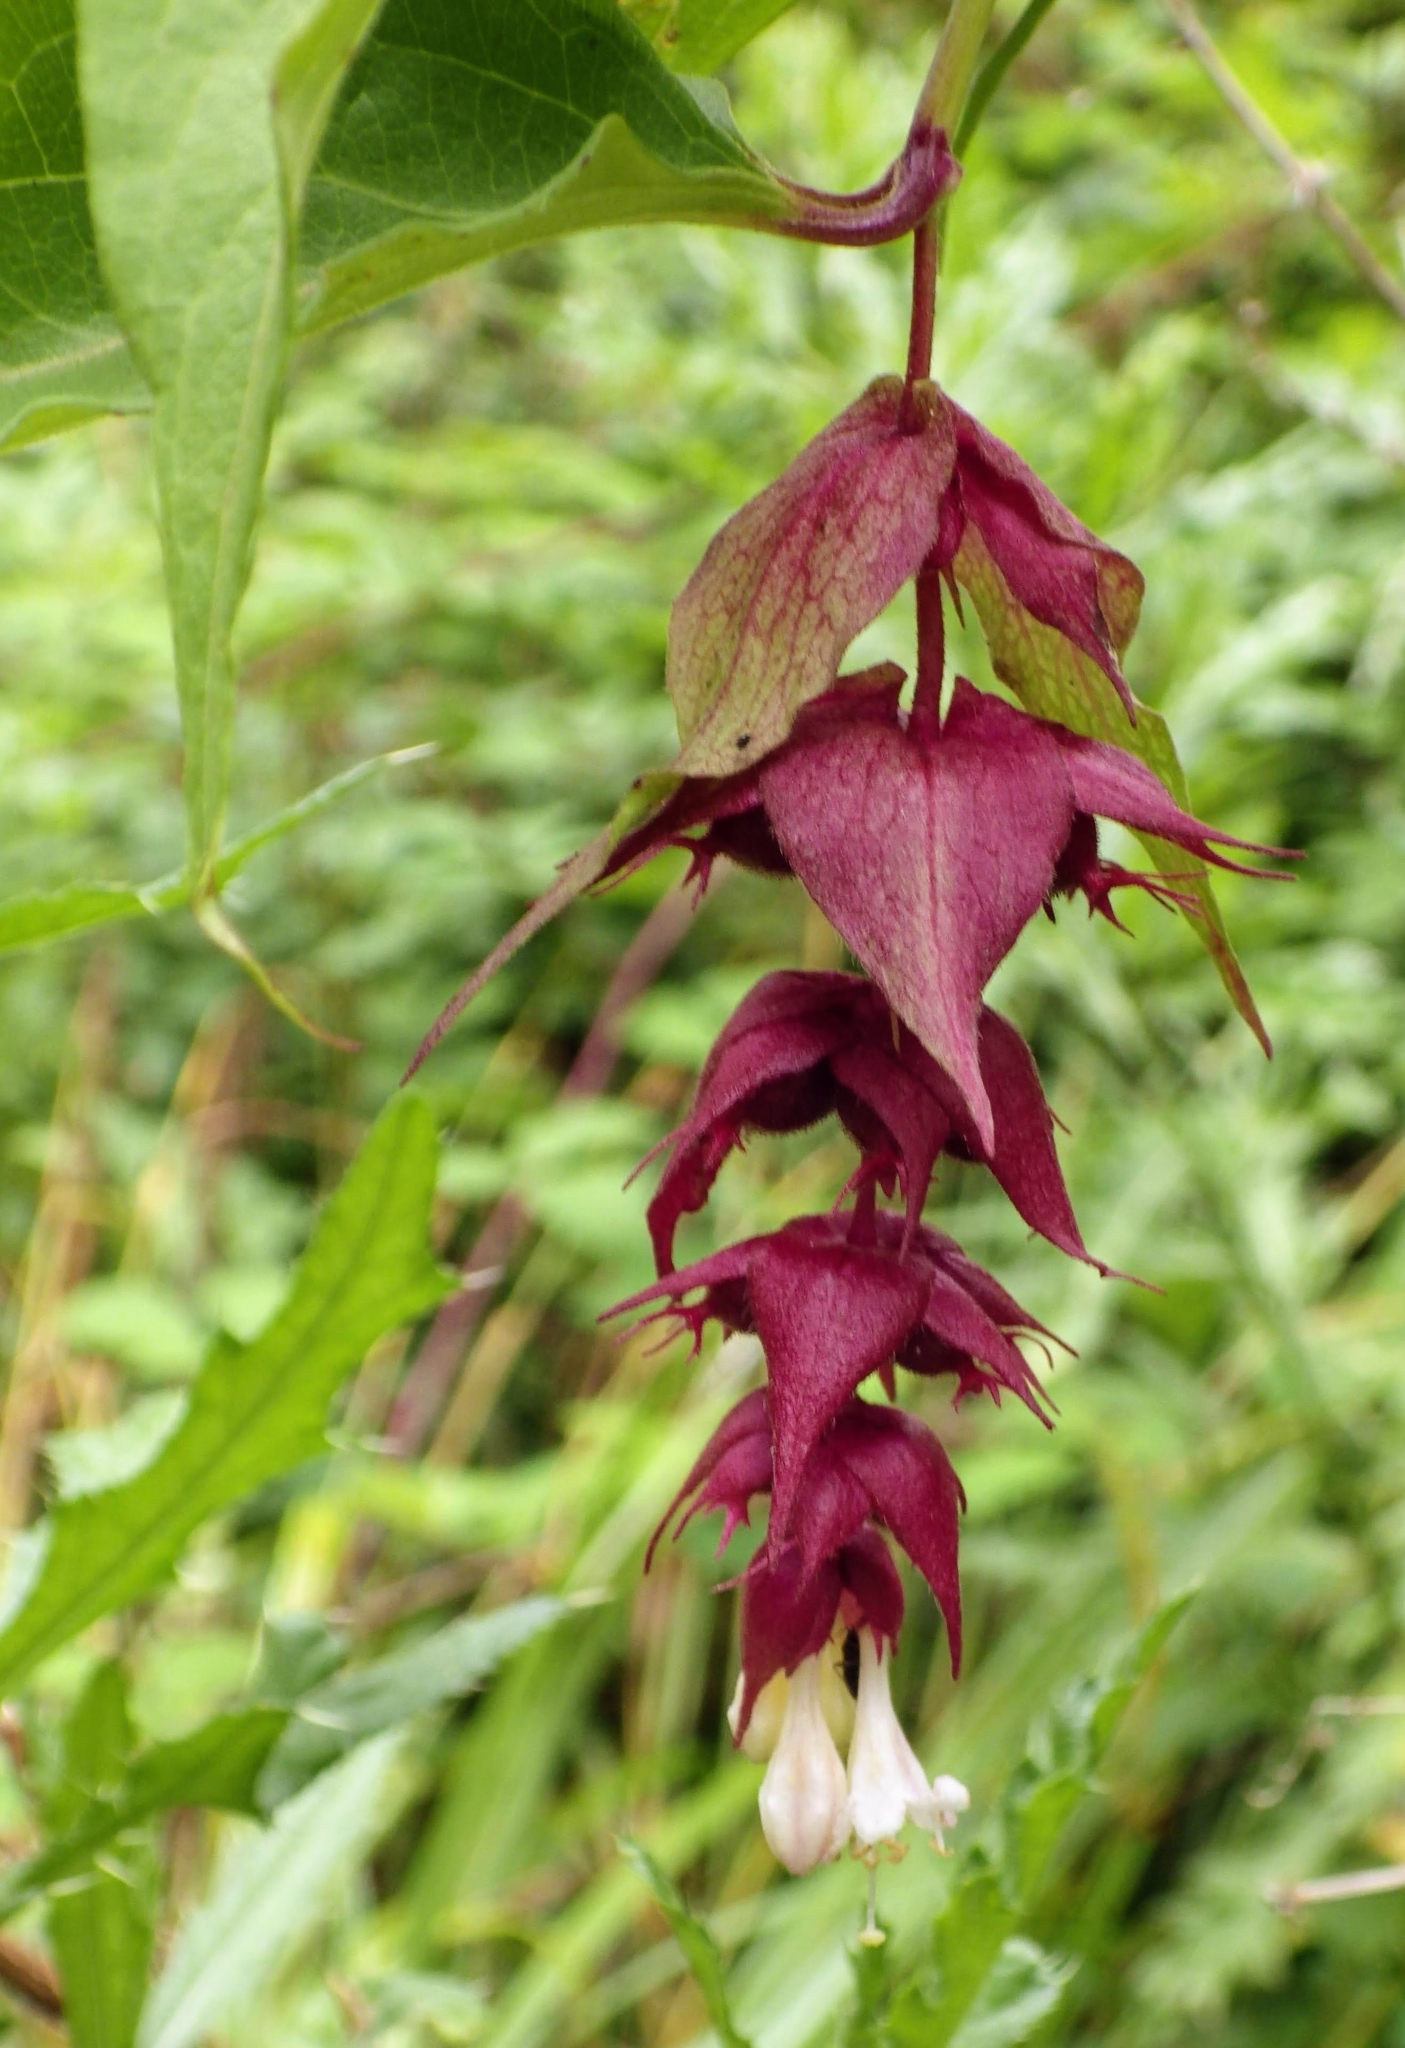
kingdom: Plantae
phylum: Tracheophyta
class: Magnoliopsida
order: Dipsacales
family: Caprifoliaceae
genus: Leycesteria
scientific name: Leycesteria formosa
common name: Himalayan honeysuckle
